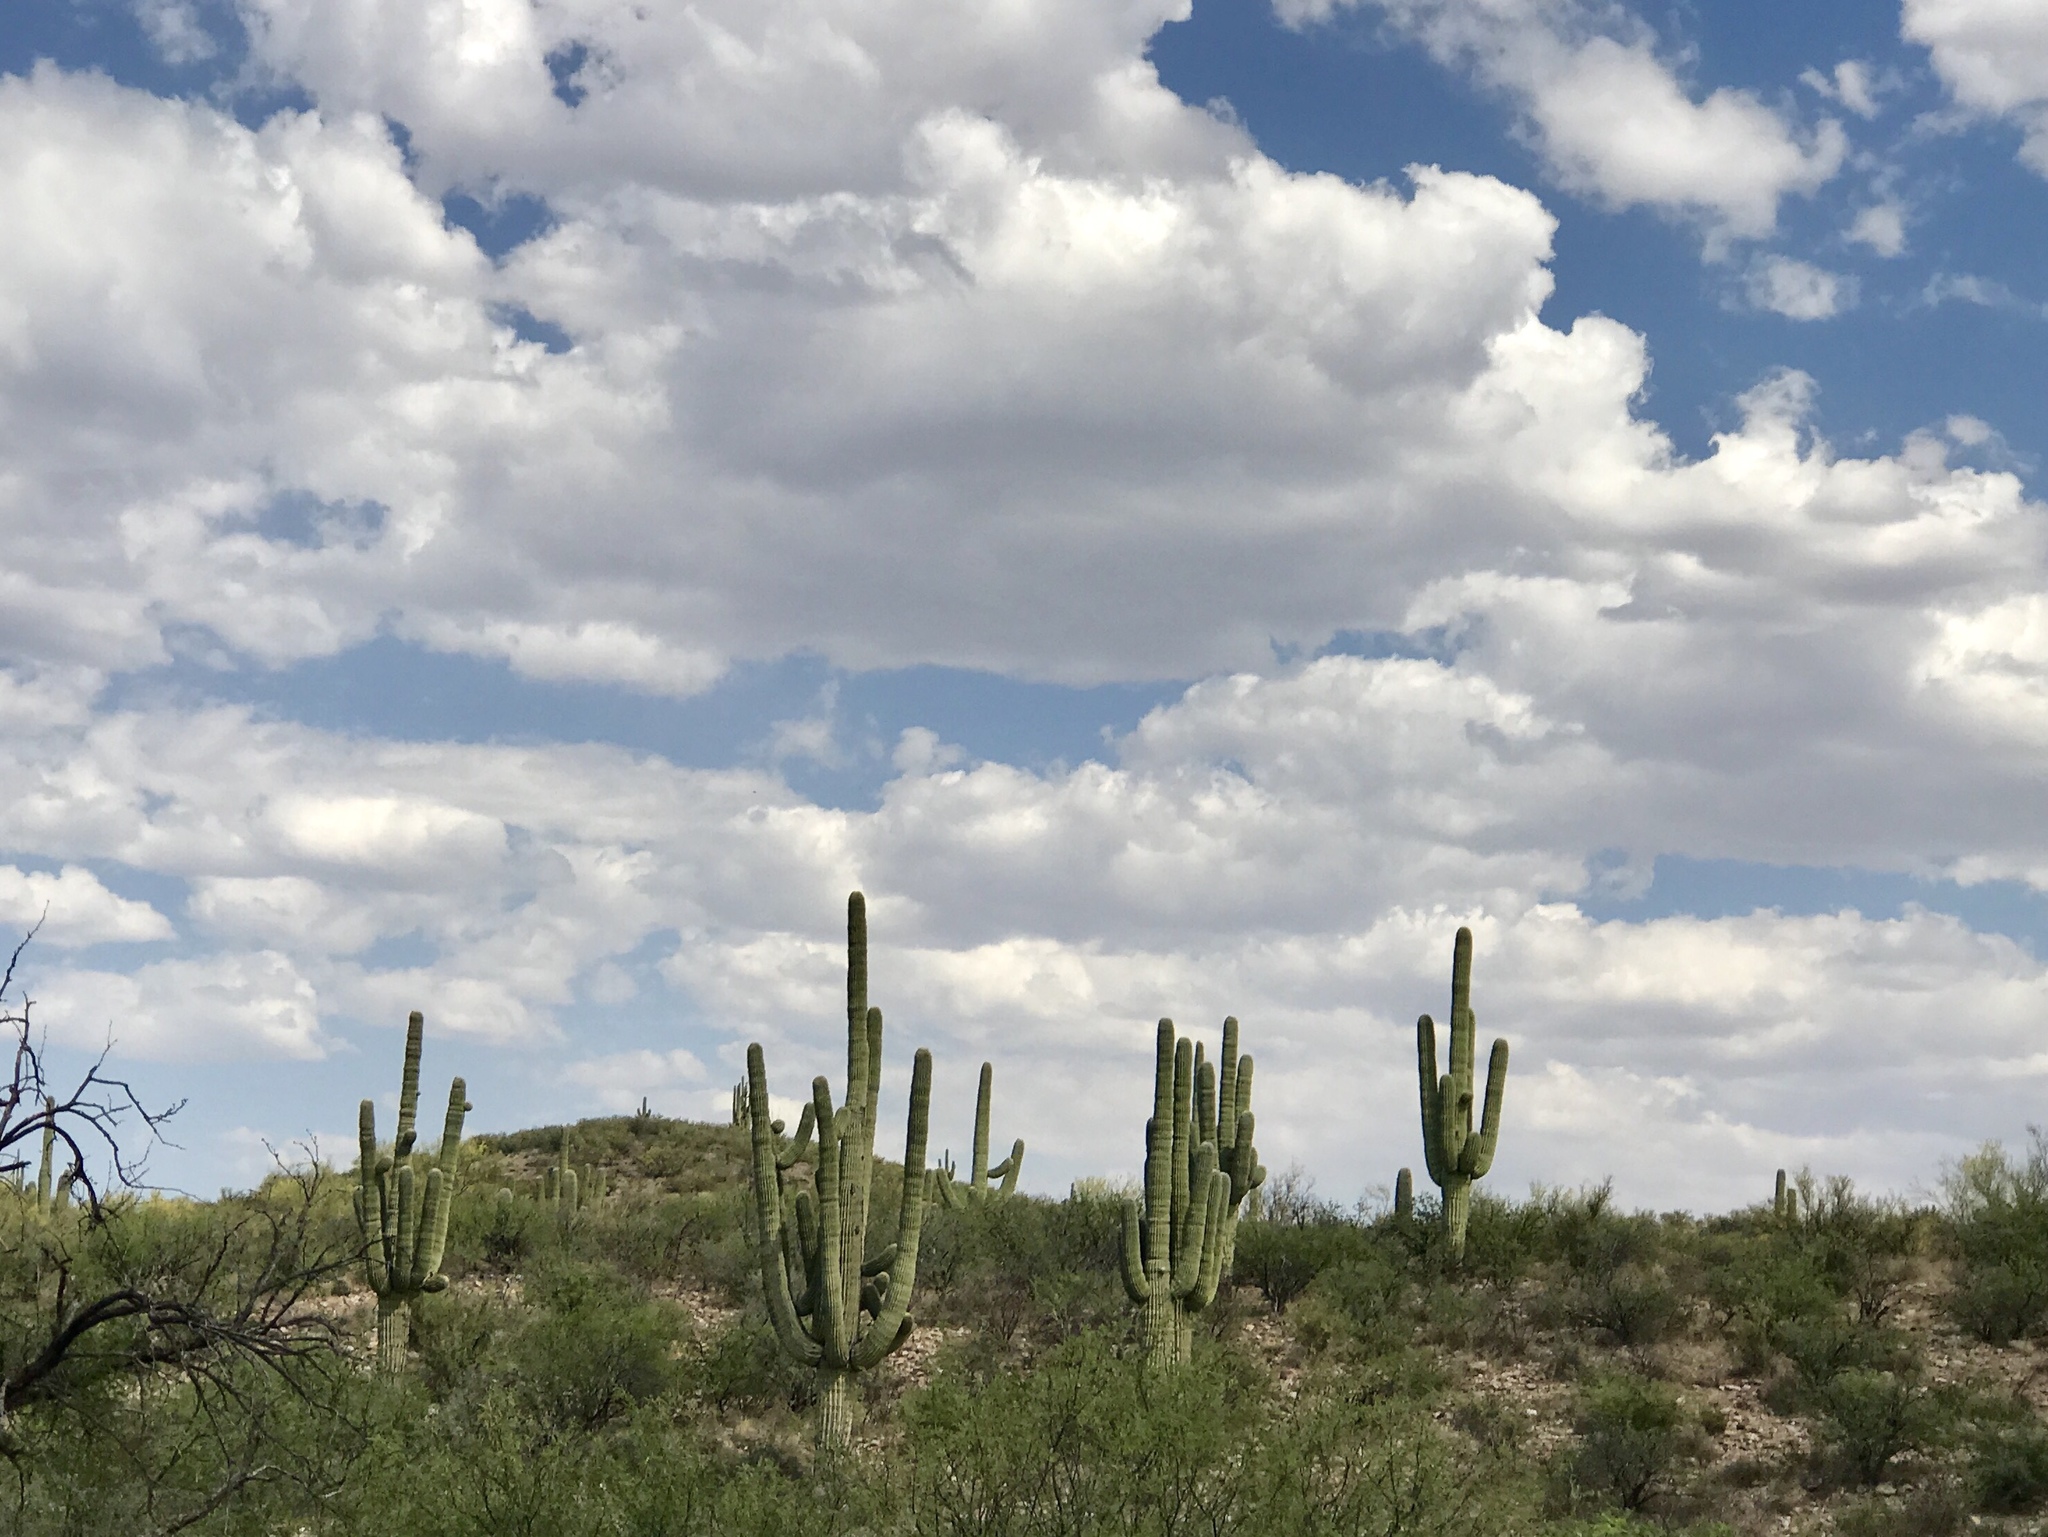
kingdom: Plantae
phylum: Tracheophyta
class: Magnoliopsida
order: Caryophyllales
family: Cactaceae
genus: Carnegiea
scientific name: Carnegiea gigantea
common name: Saguaro
